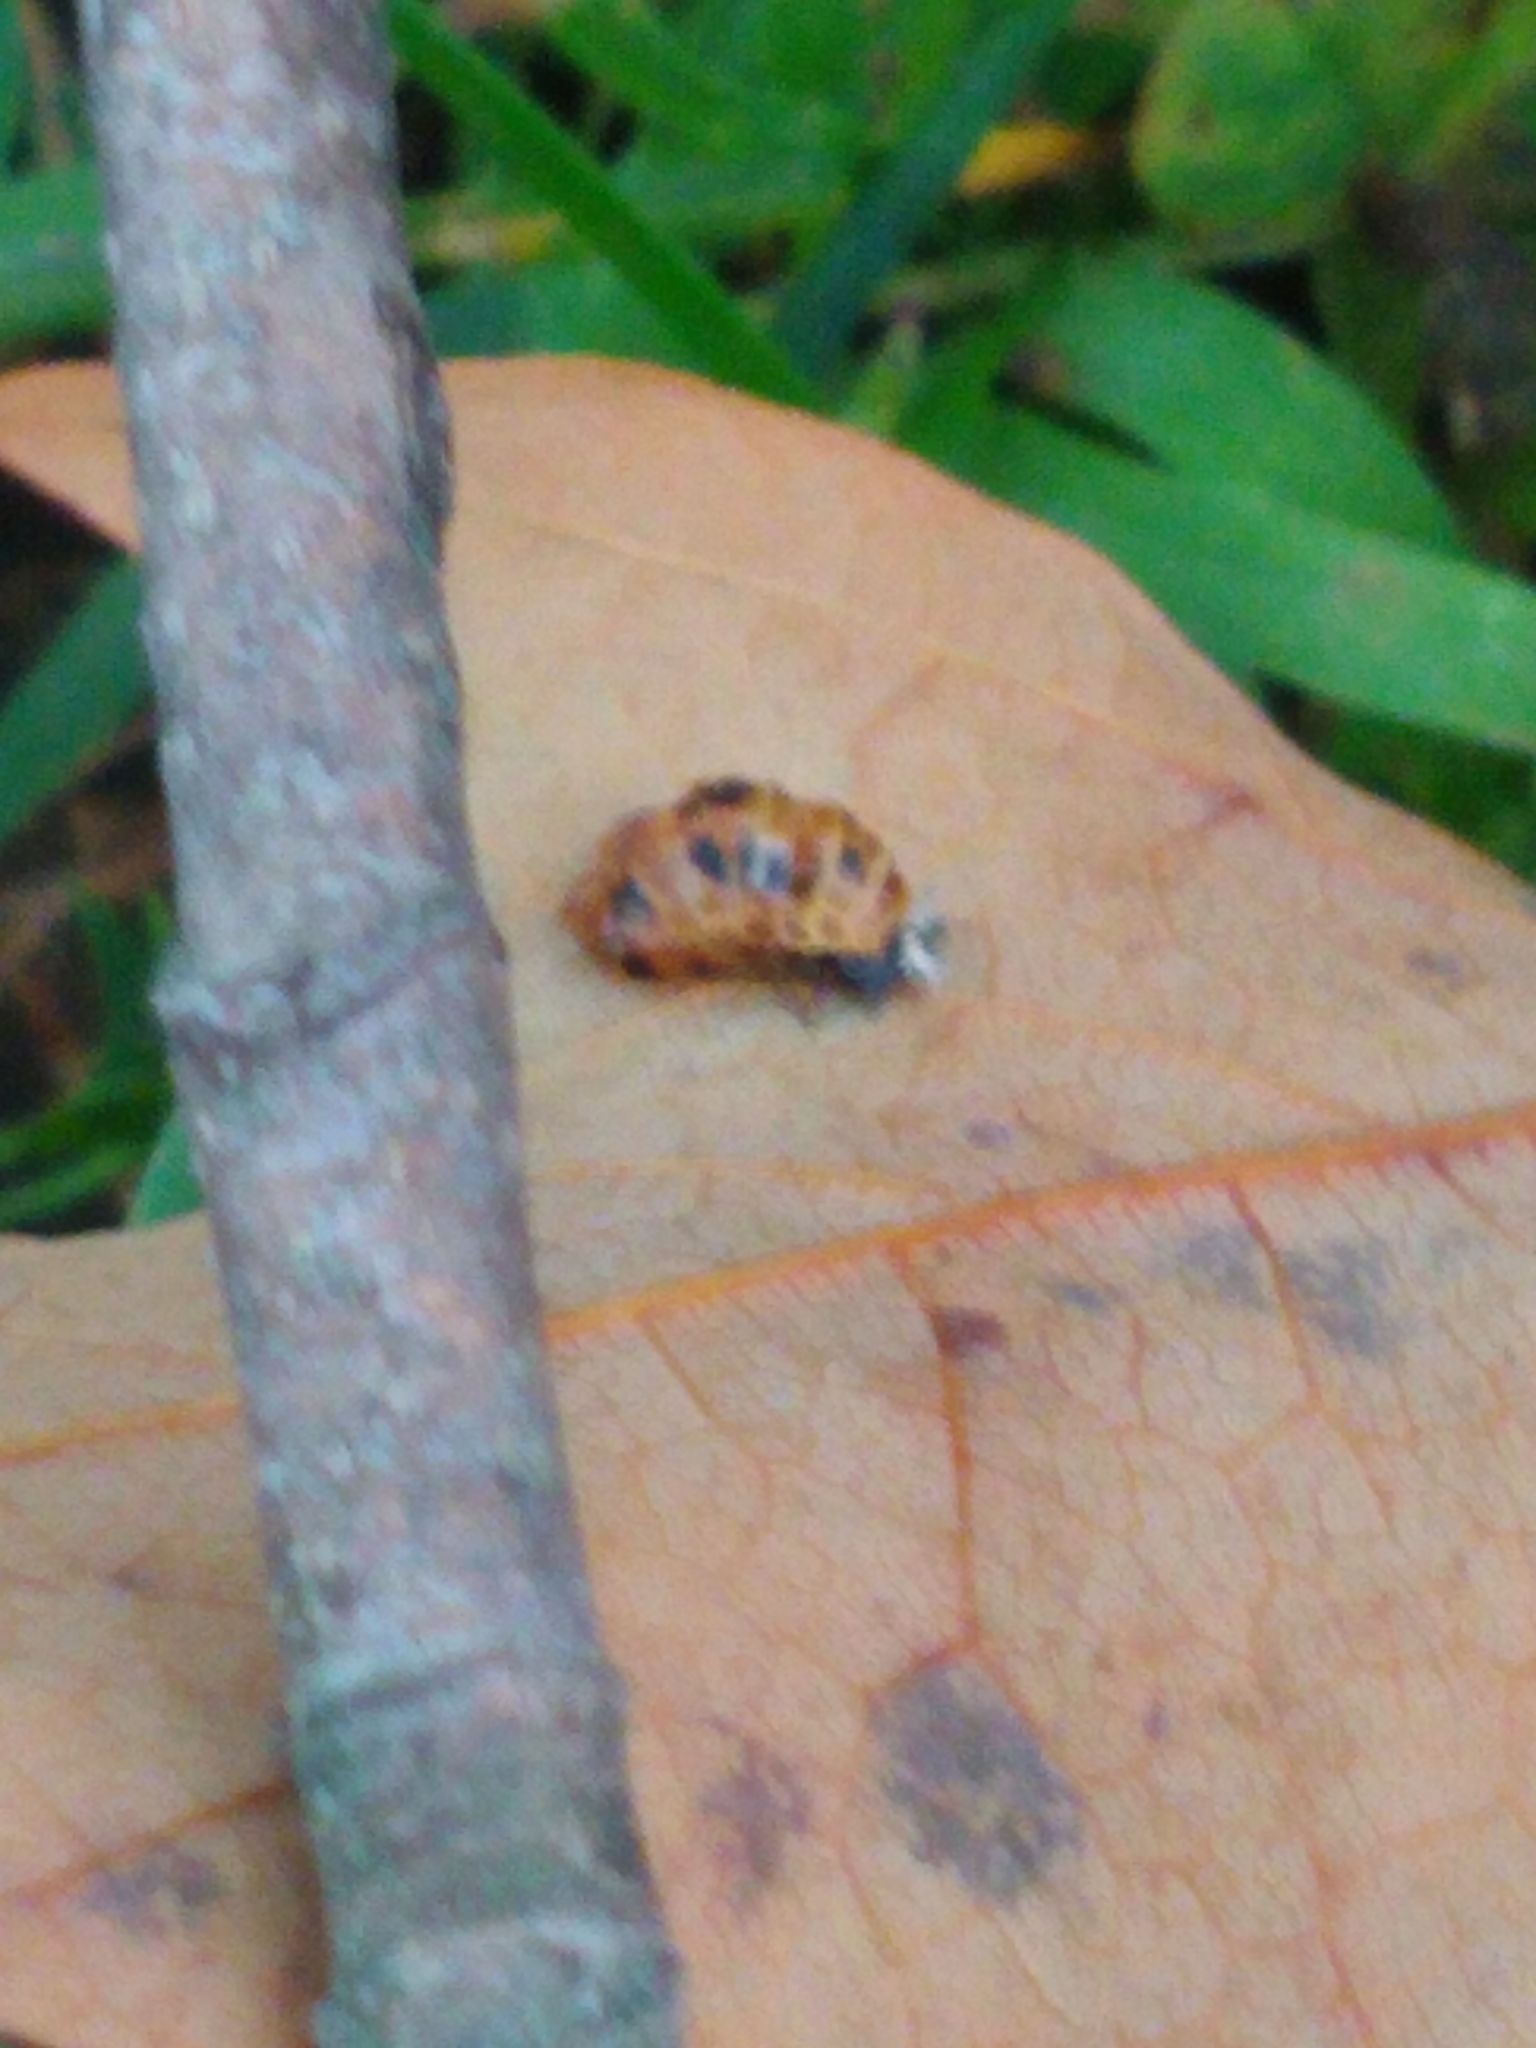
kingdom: Animalia
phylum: Arthropoda
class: Insecta
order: Coleoptera
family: Coccinellidae
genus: Harmonia
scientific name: Harmonia axyridis
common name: Harlequin ladybird
